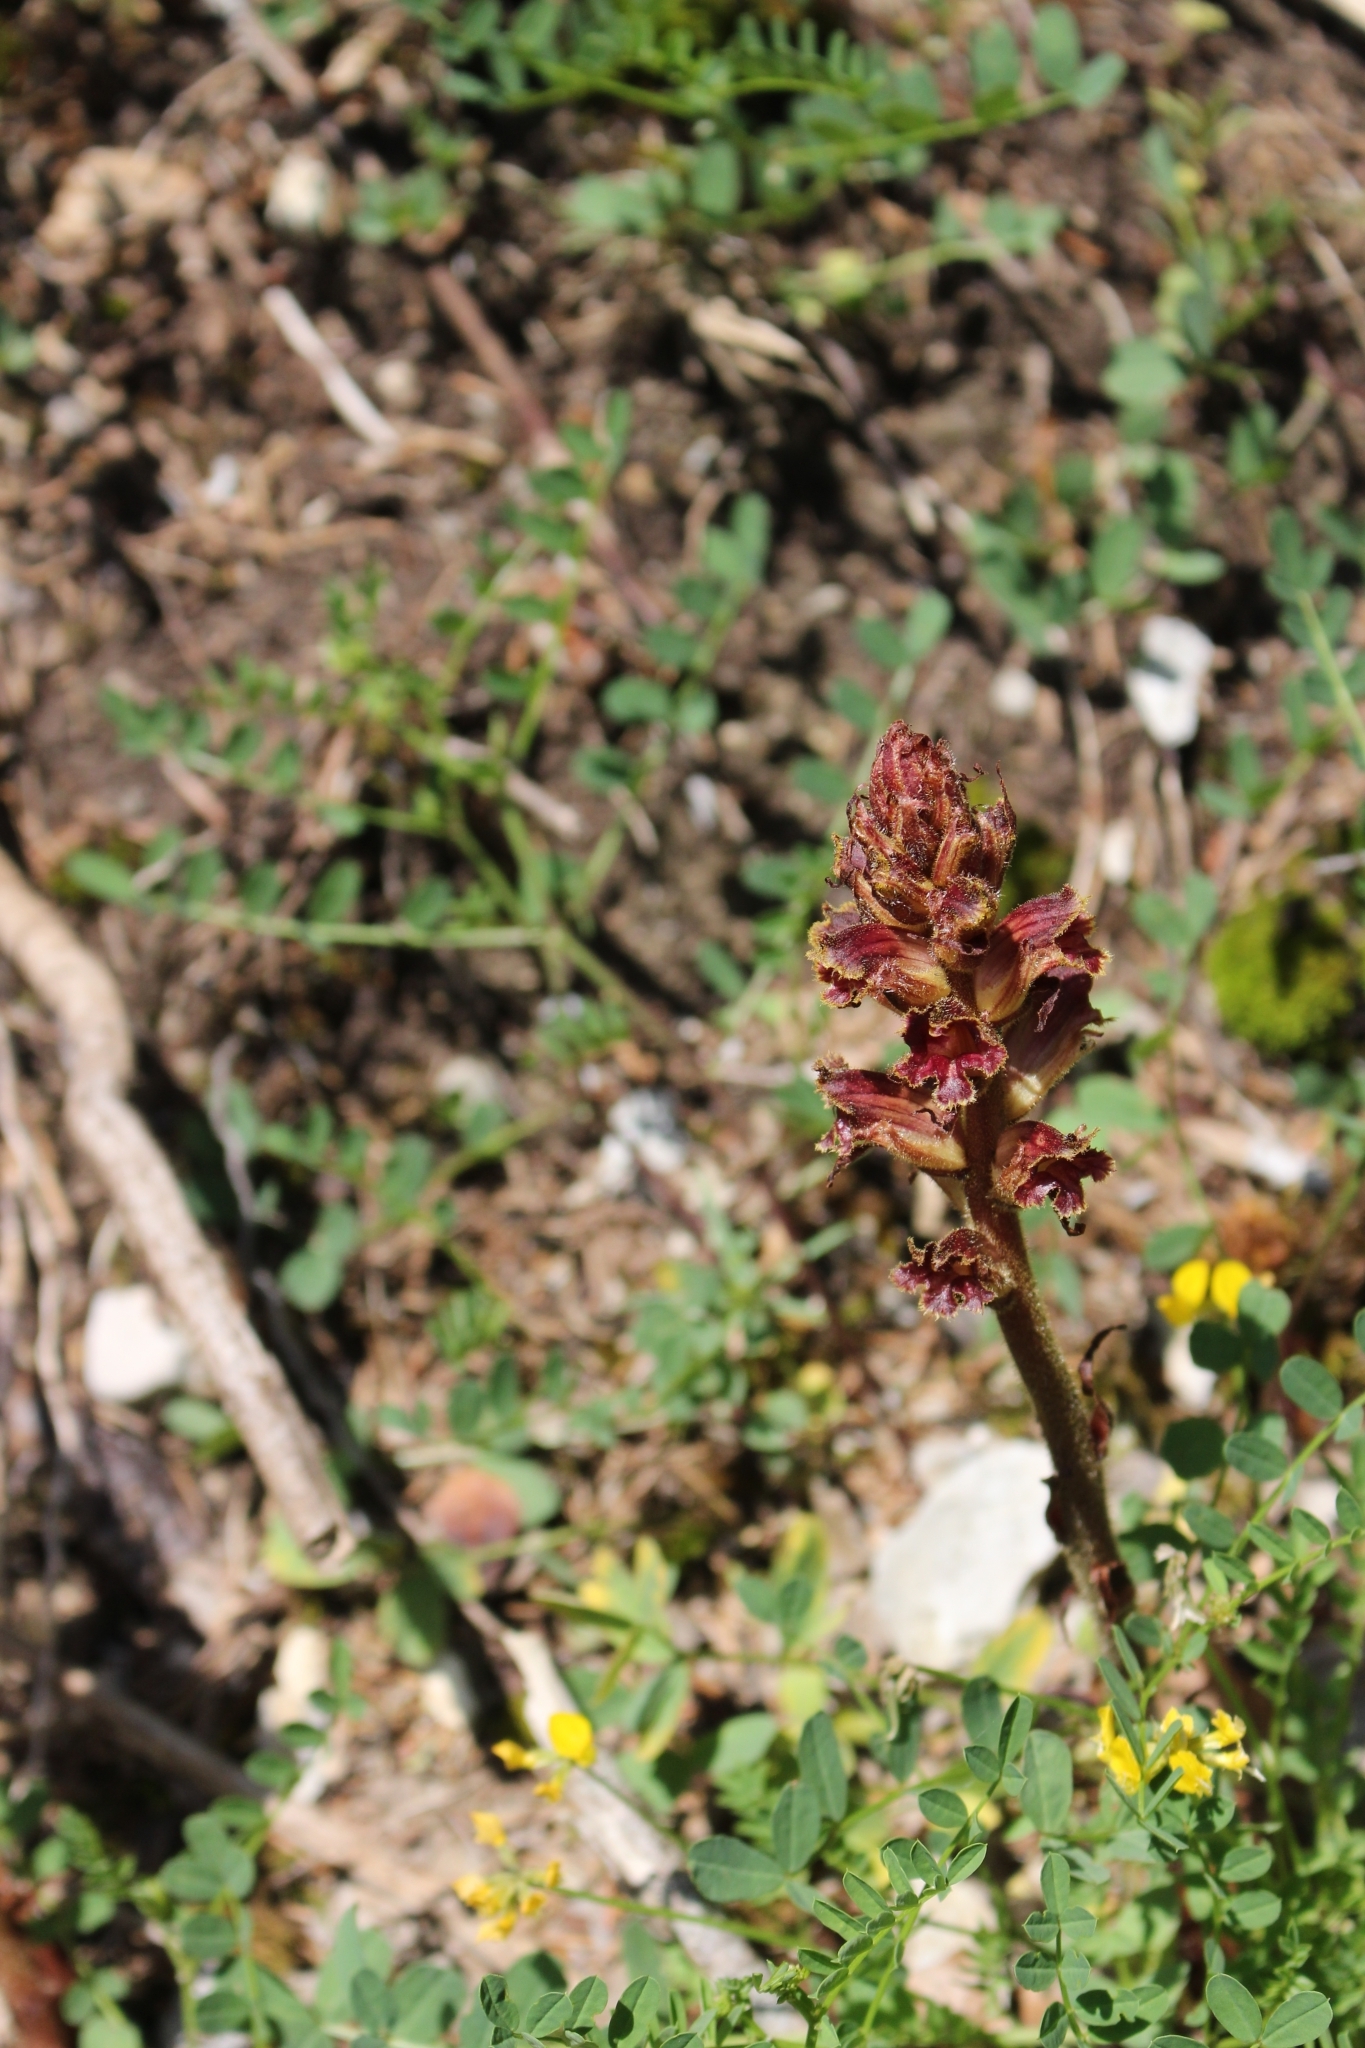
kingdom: Plantae
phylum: Tracheophyta
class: Magnoliopsida
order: Lamiales
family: Orobanchaceae
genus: Orobanche
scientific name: Orobanche gracilis
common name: Slender broomrape
